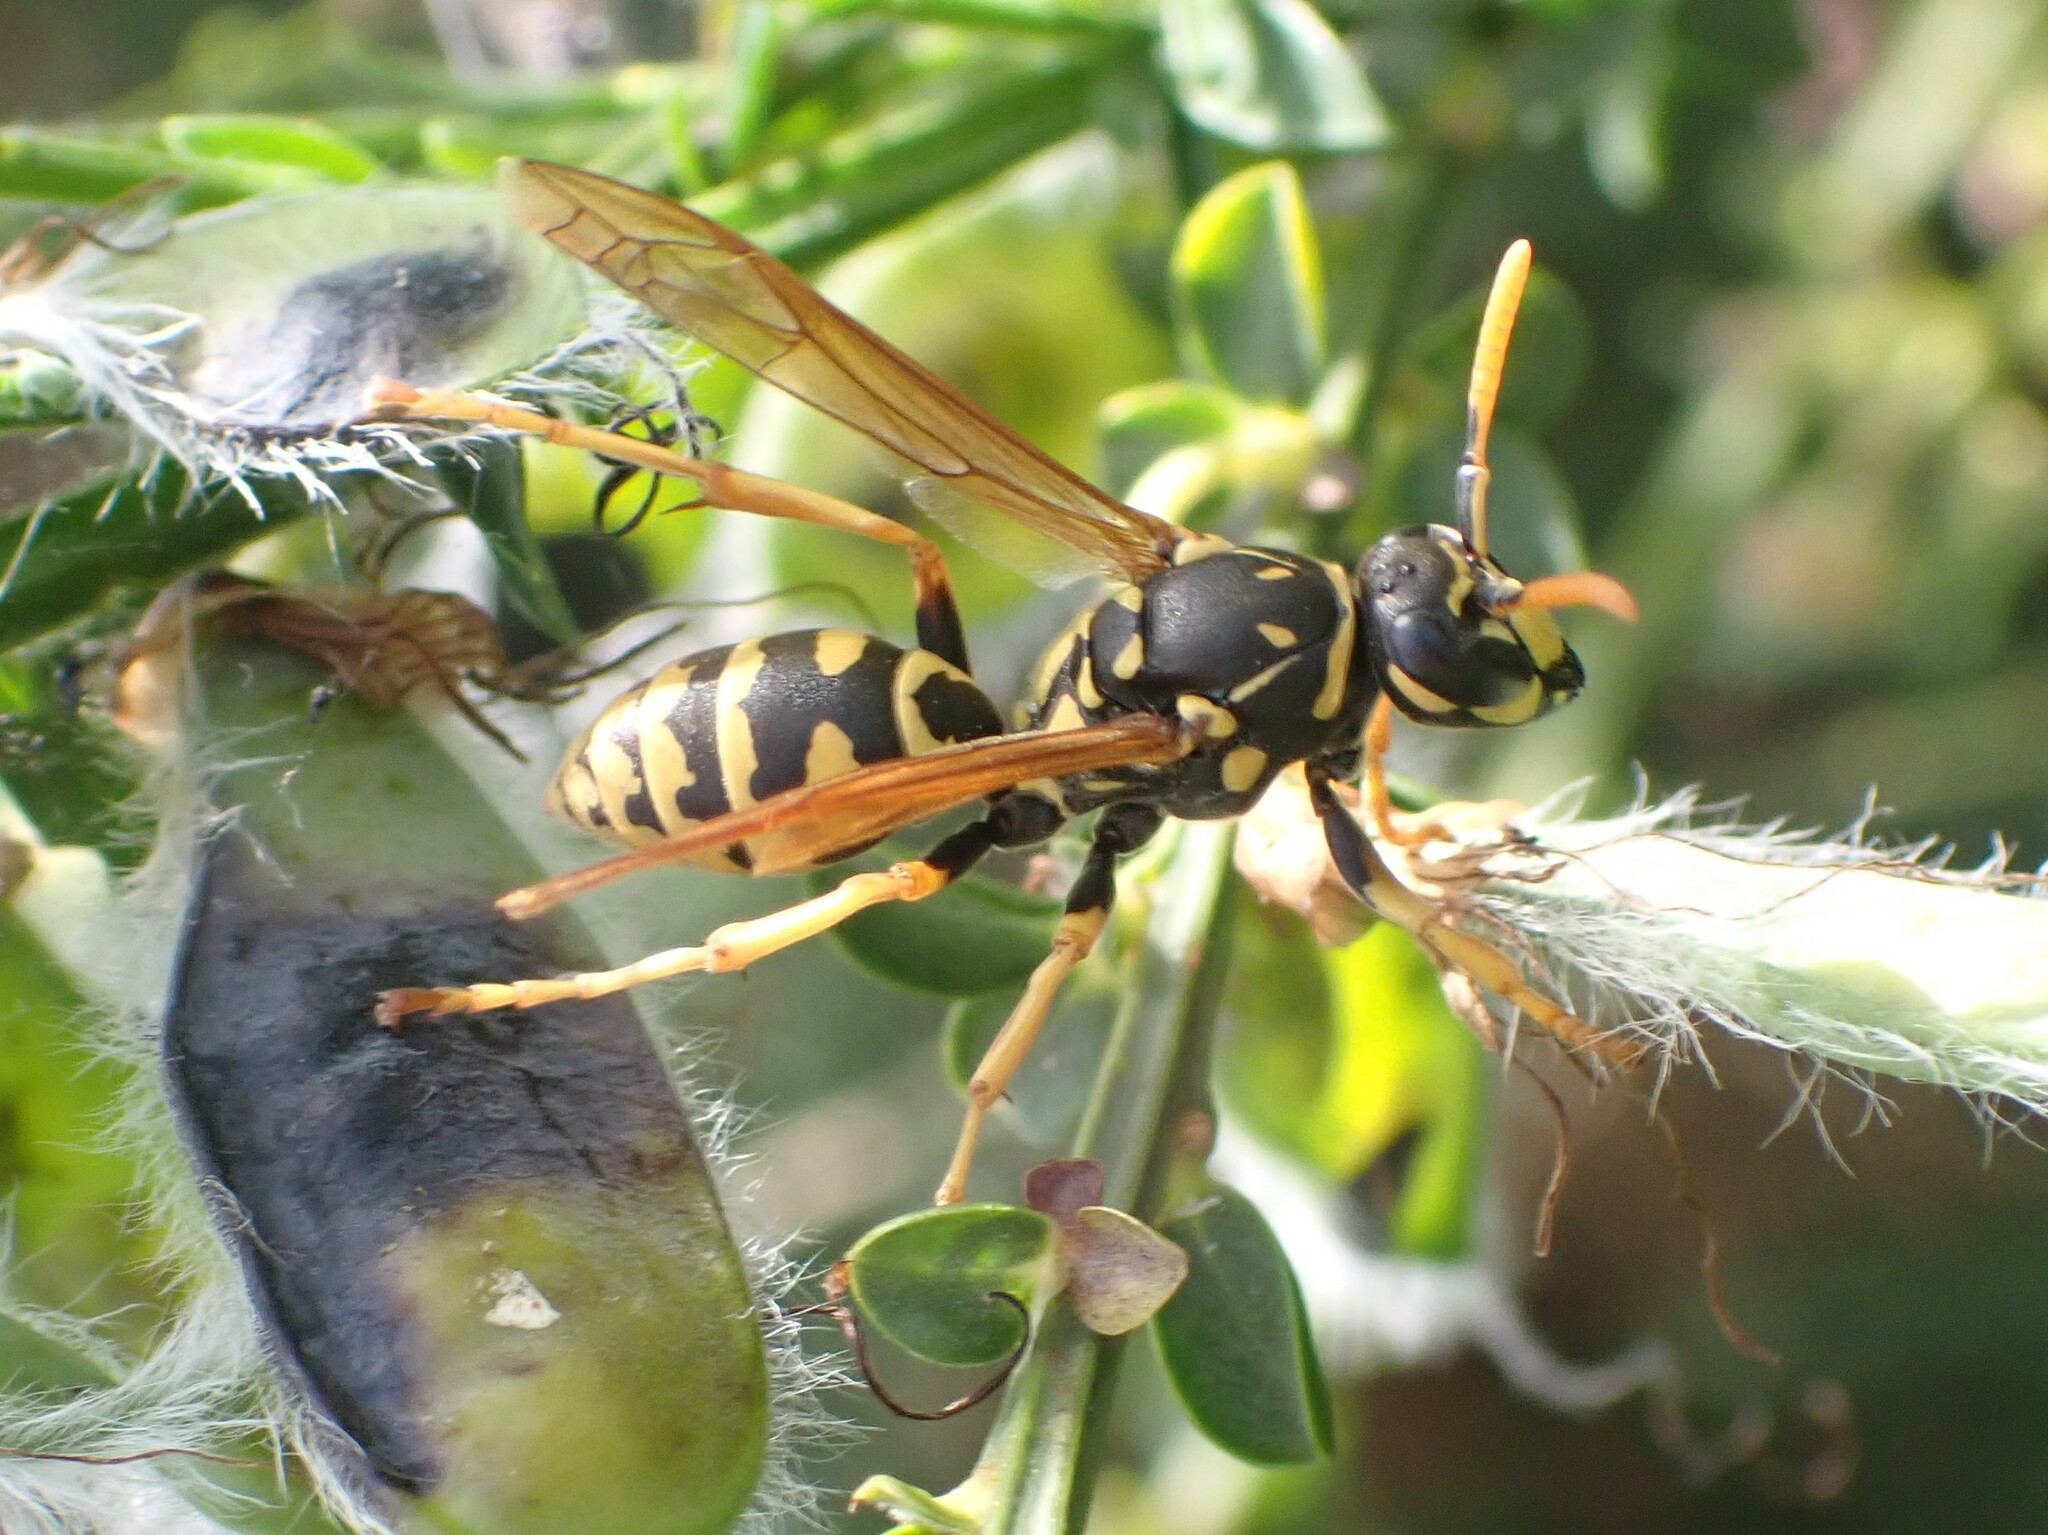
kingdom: Animalia
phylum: Arthropoda
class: Insecta
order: Hymenoptera
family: Eumenidae
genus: Polistes
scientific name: Polistes dominula
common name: Paper wasp
